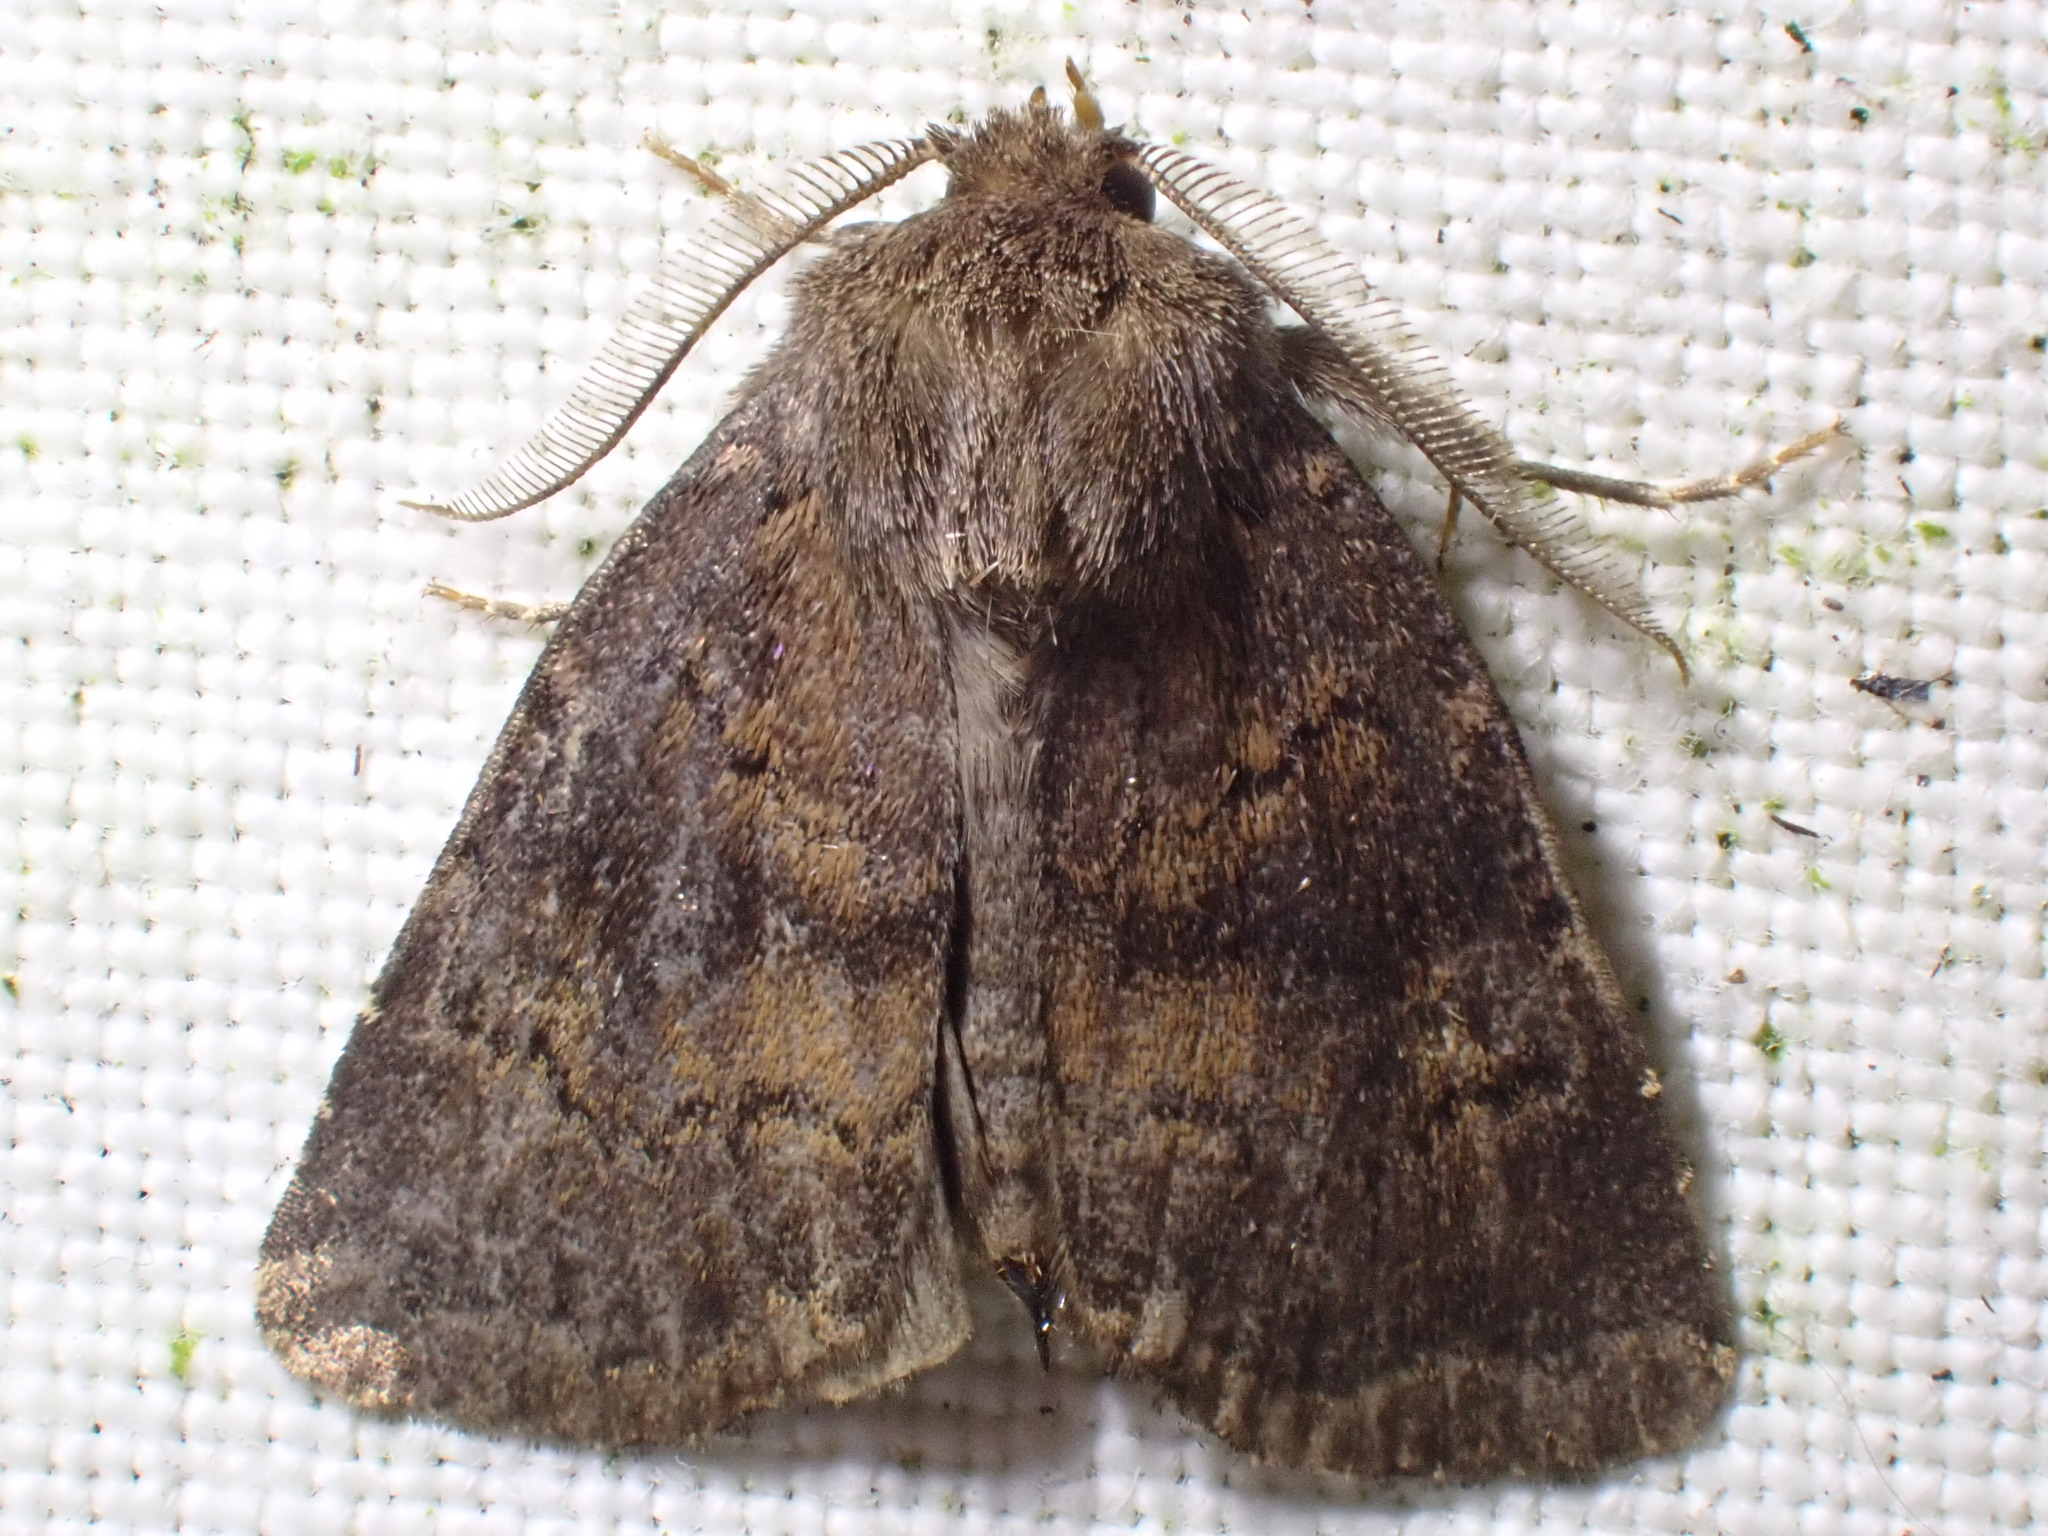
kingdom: Animalia
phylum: Arthropoda
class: Insecta
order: Lepidoptera
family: Noctuidae
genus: Charanyca
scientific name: Charanyca ferruginea
